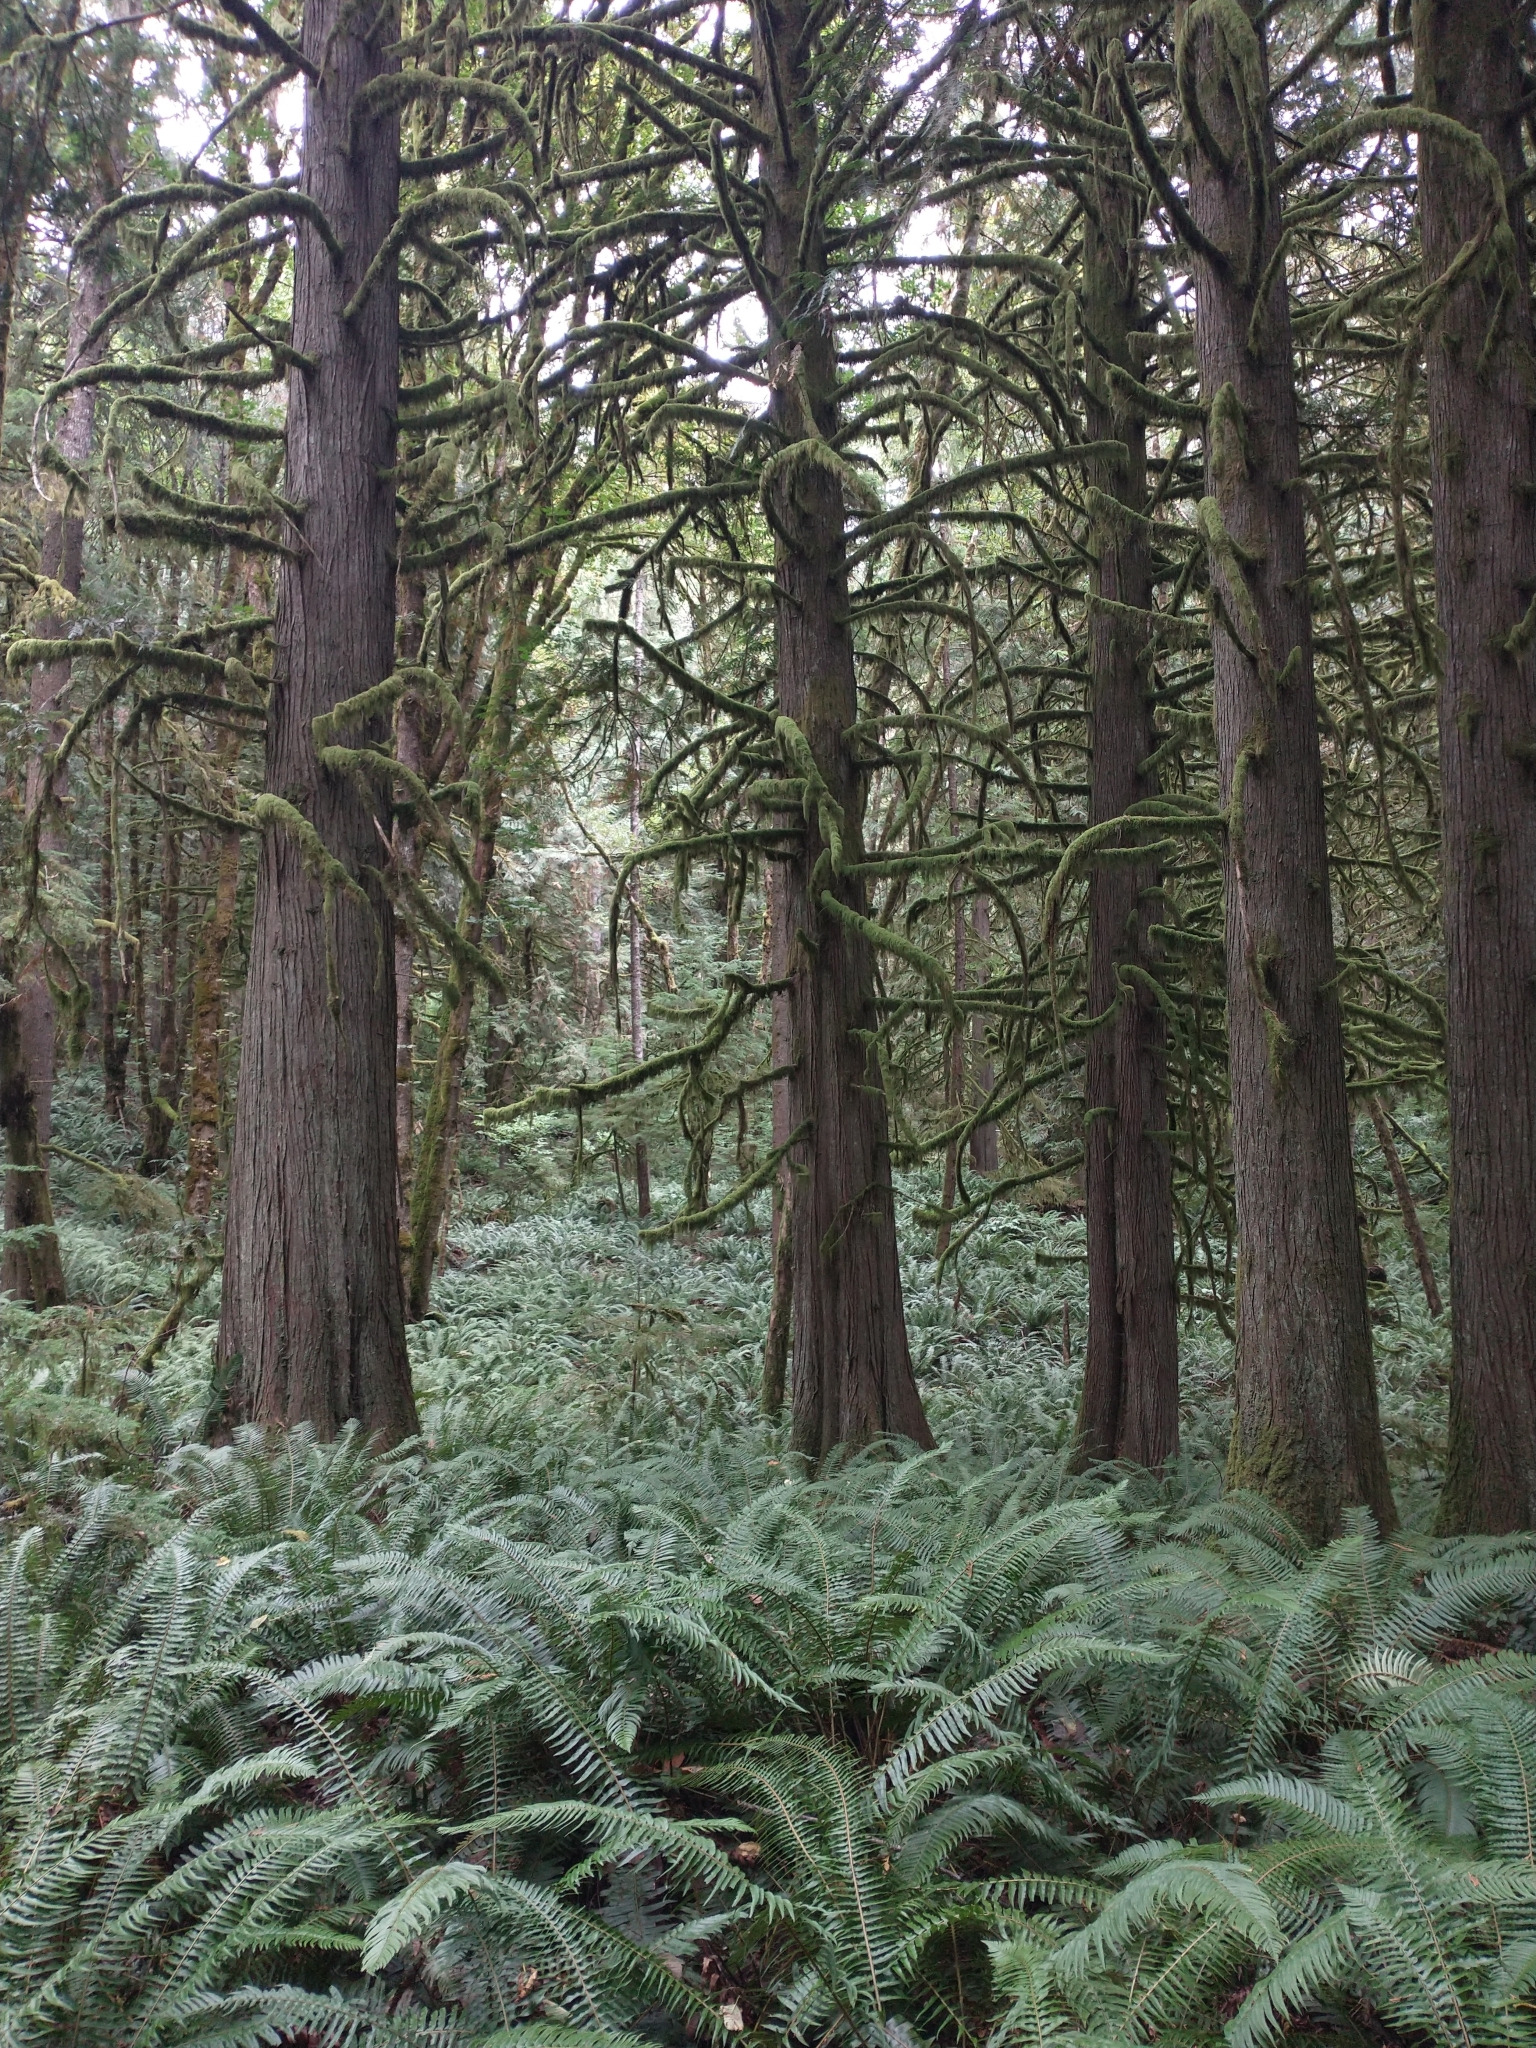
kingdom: Plantae
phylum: Tracheophyta
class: Pinopsida
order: Pinales
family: Cupressaceae
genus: Thuja
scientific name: Thuja plicata
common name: Western red-cedar
